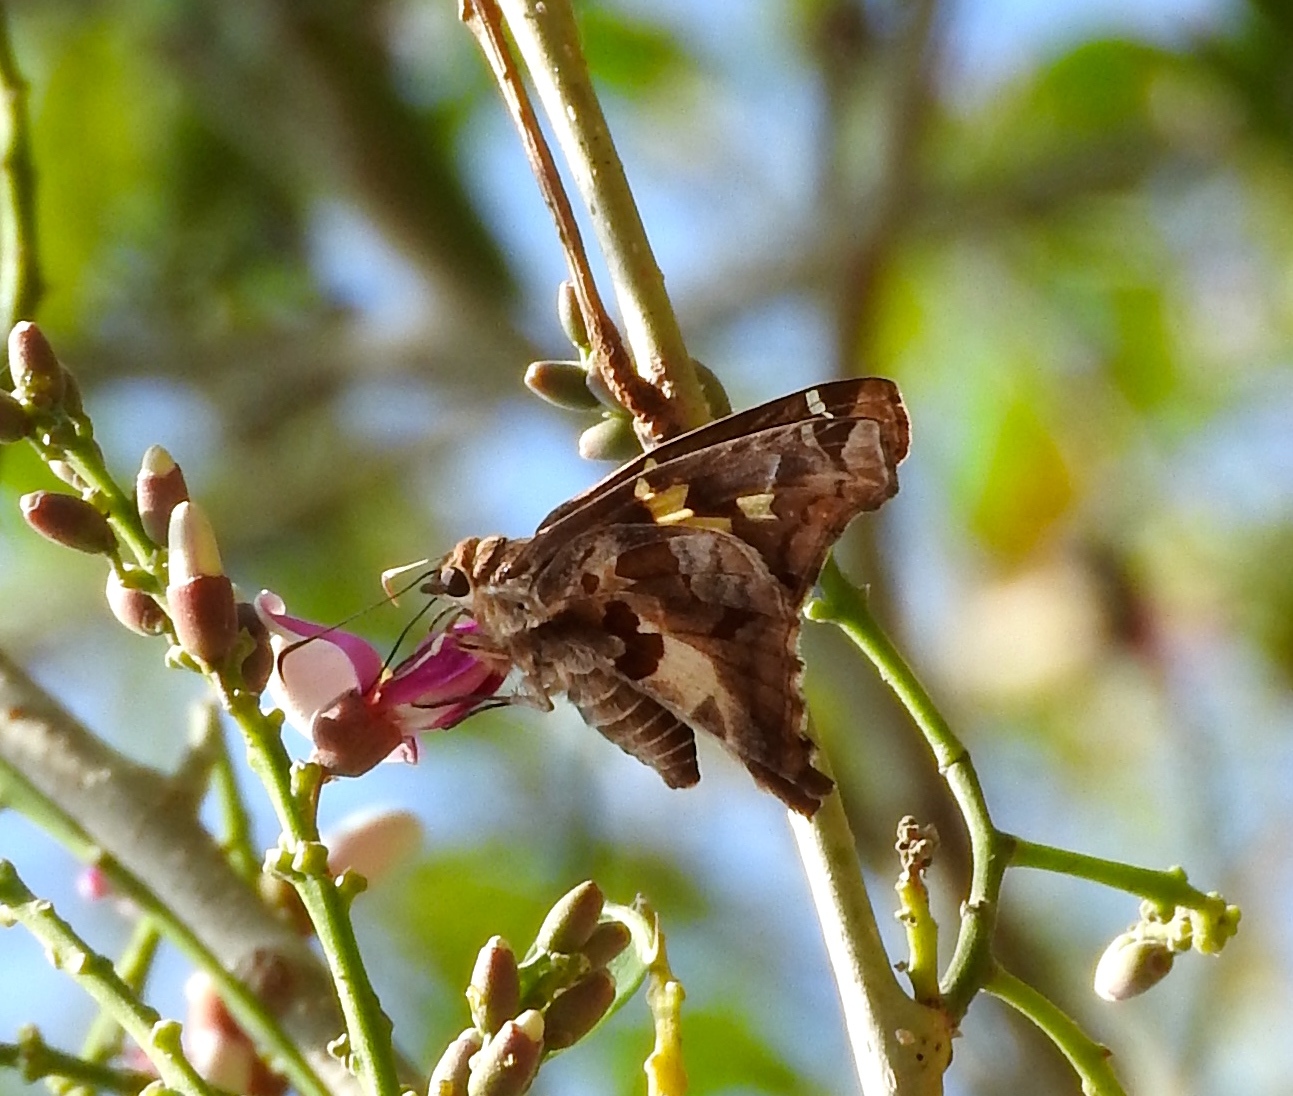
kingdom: Animalia
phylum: Arthropoda
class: Insecta
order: Lepidoptera
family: Hesperiidae
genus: Chioides
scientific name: Chioides zilpa
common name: Zilpa longtail
